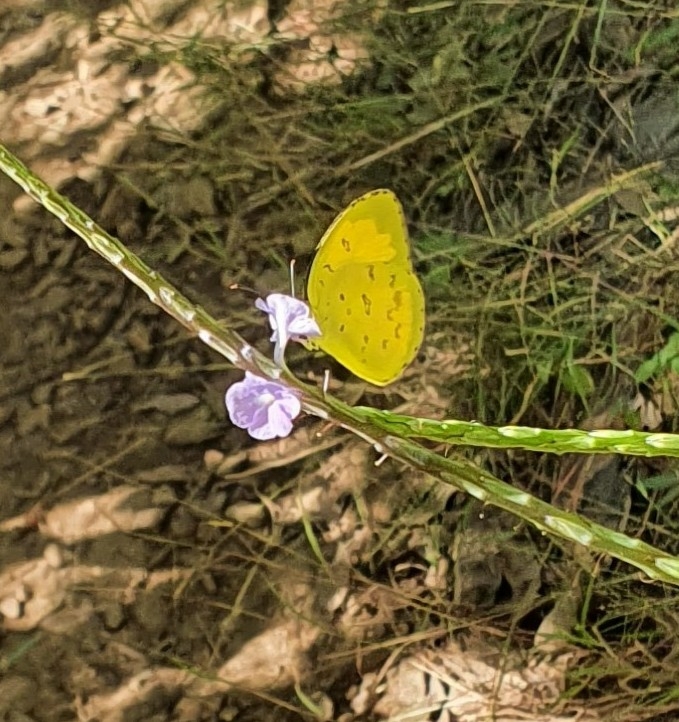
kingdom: Animalia
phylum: Arthropoda
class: Insecta
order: Lepidoptera
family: Pieridae
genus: Eurema
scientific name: Eurema hecabe
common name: Pale grass yellow
